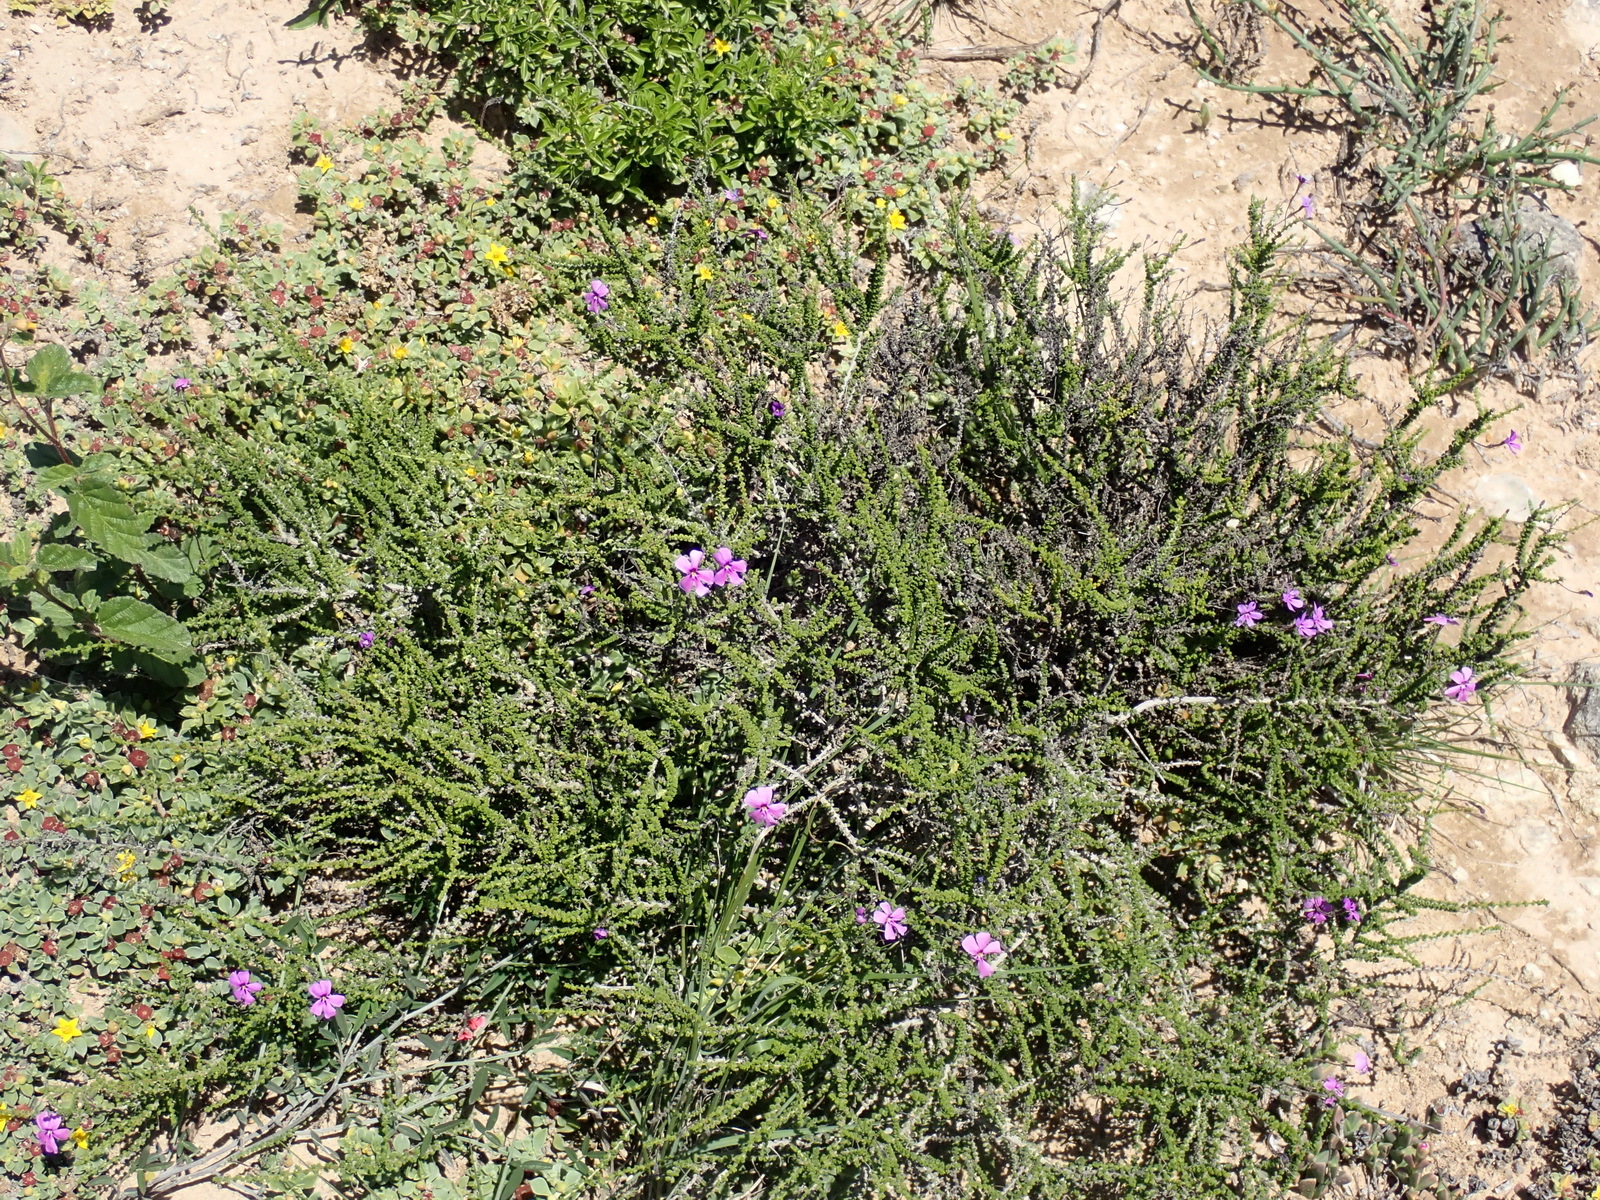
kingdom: Plantae
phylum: Tracheophyta
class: Magnoliopsida
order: Lamiales
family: Scrophulariaceae
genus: Jamesbrittenia
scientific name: Jamesbrittenia microphylla
